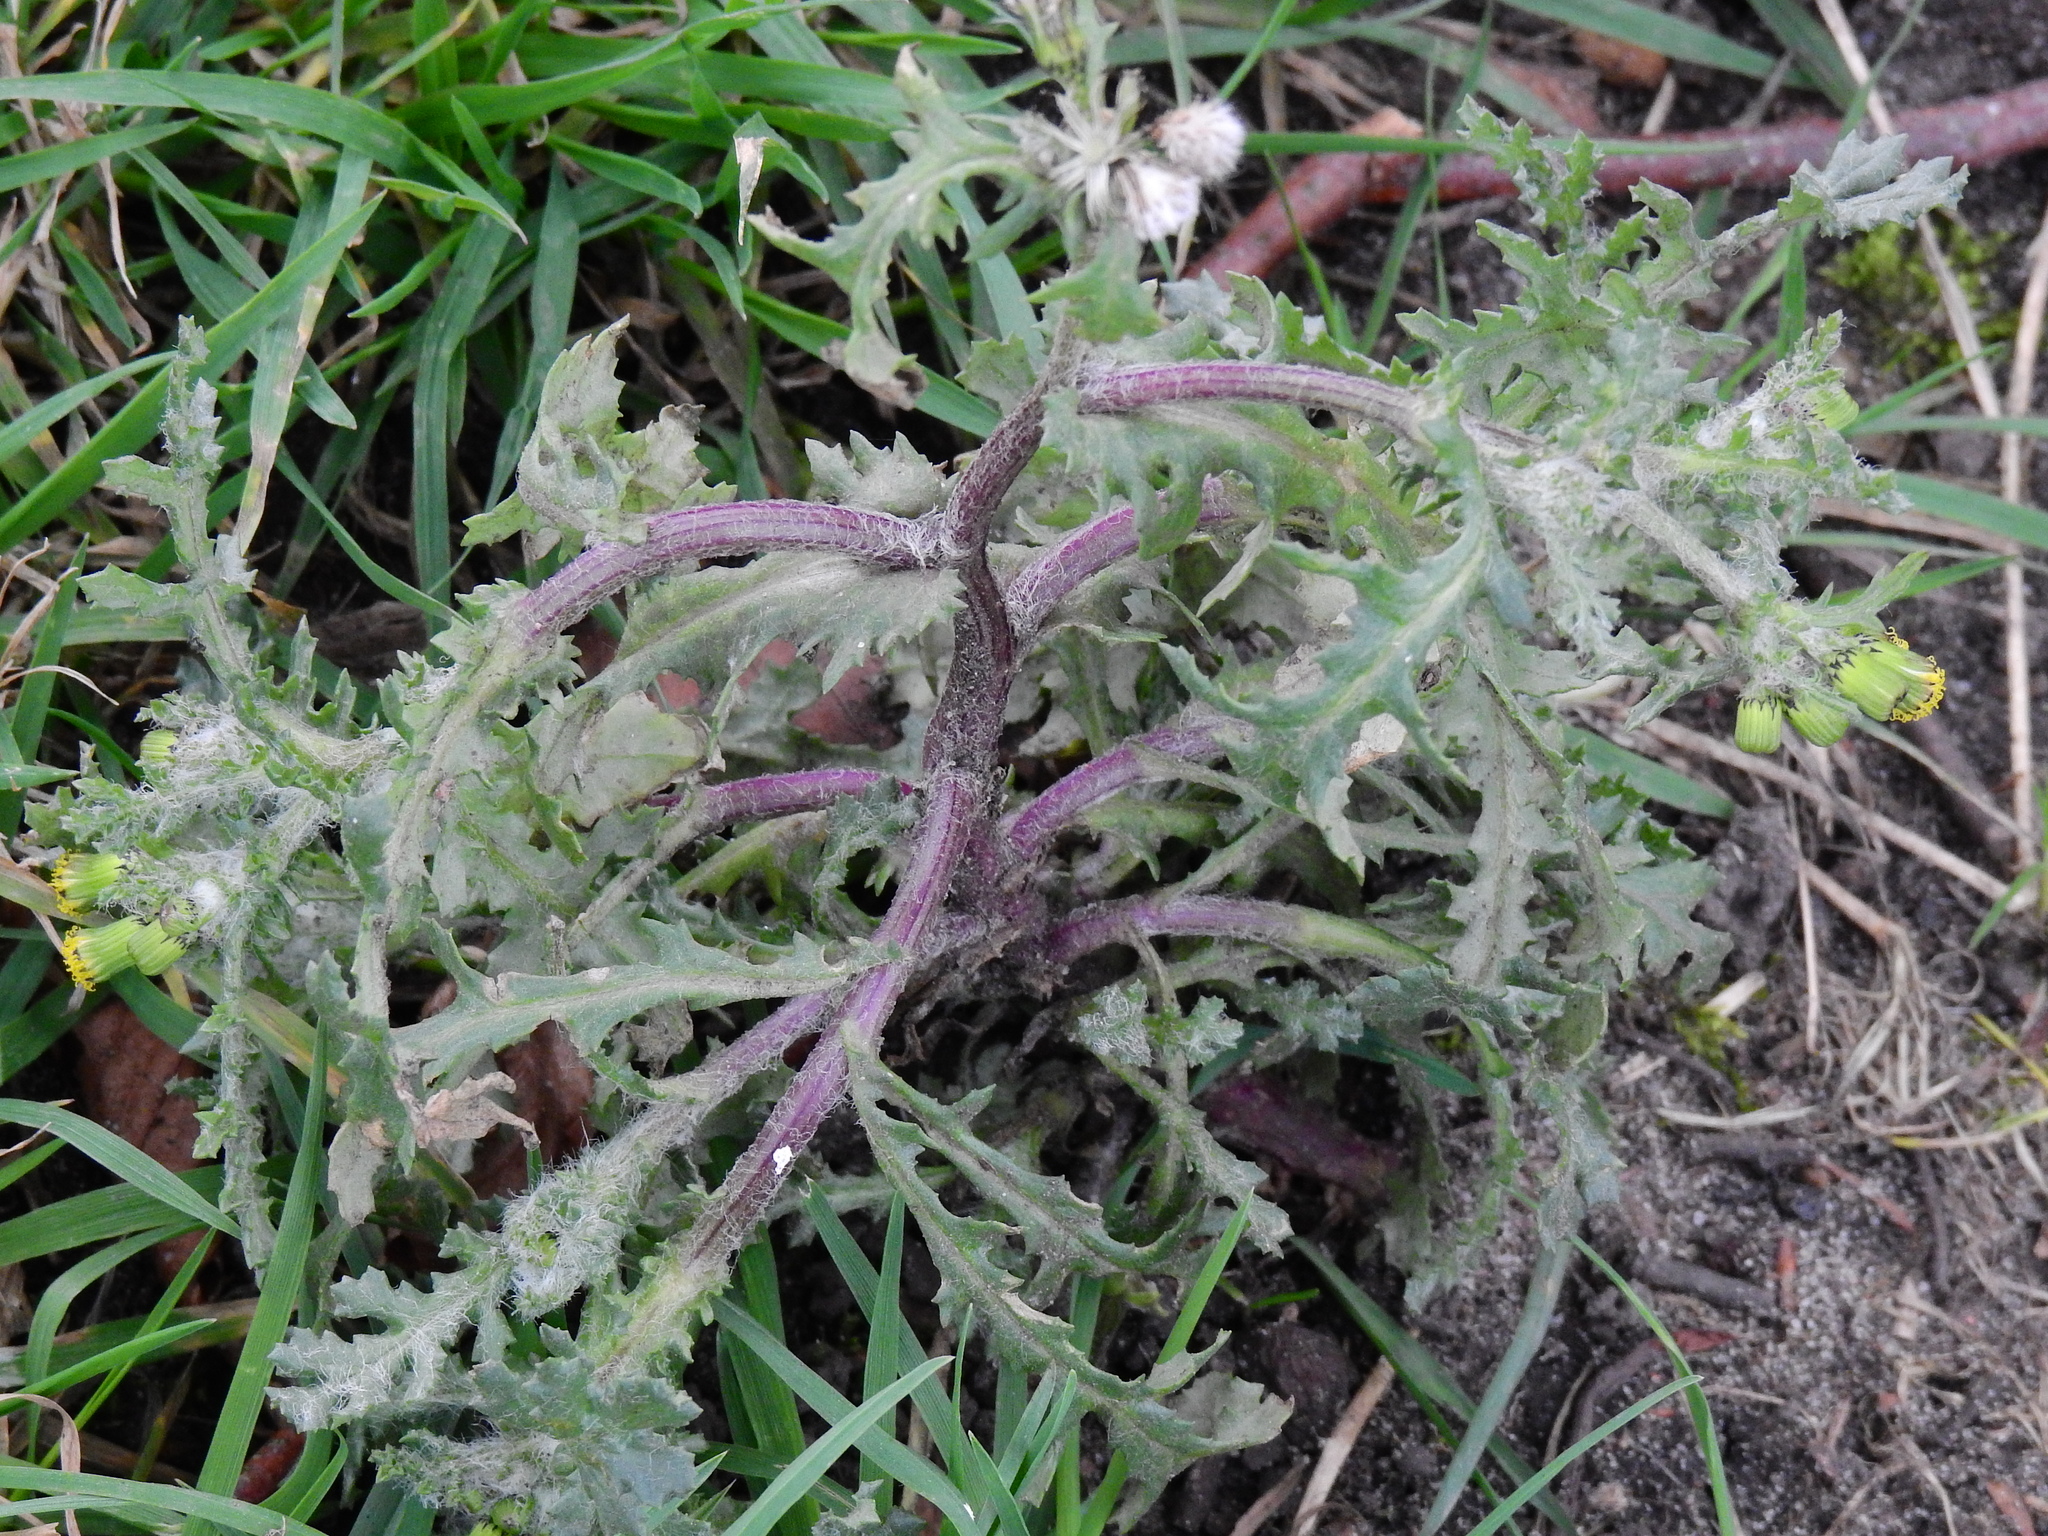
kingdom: Plantae
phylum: Tracheophyta
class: Magnoliopsida
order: Asterales
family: Asteraceae
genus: Senecio
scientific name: Senecio vulgaris
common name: Old-man-in-the-spring
